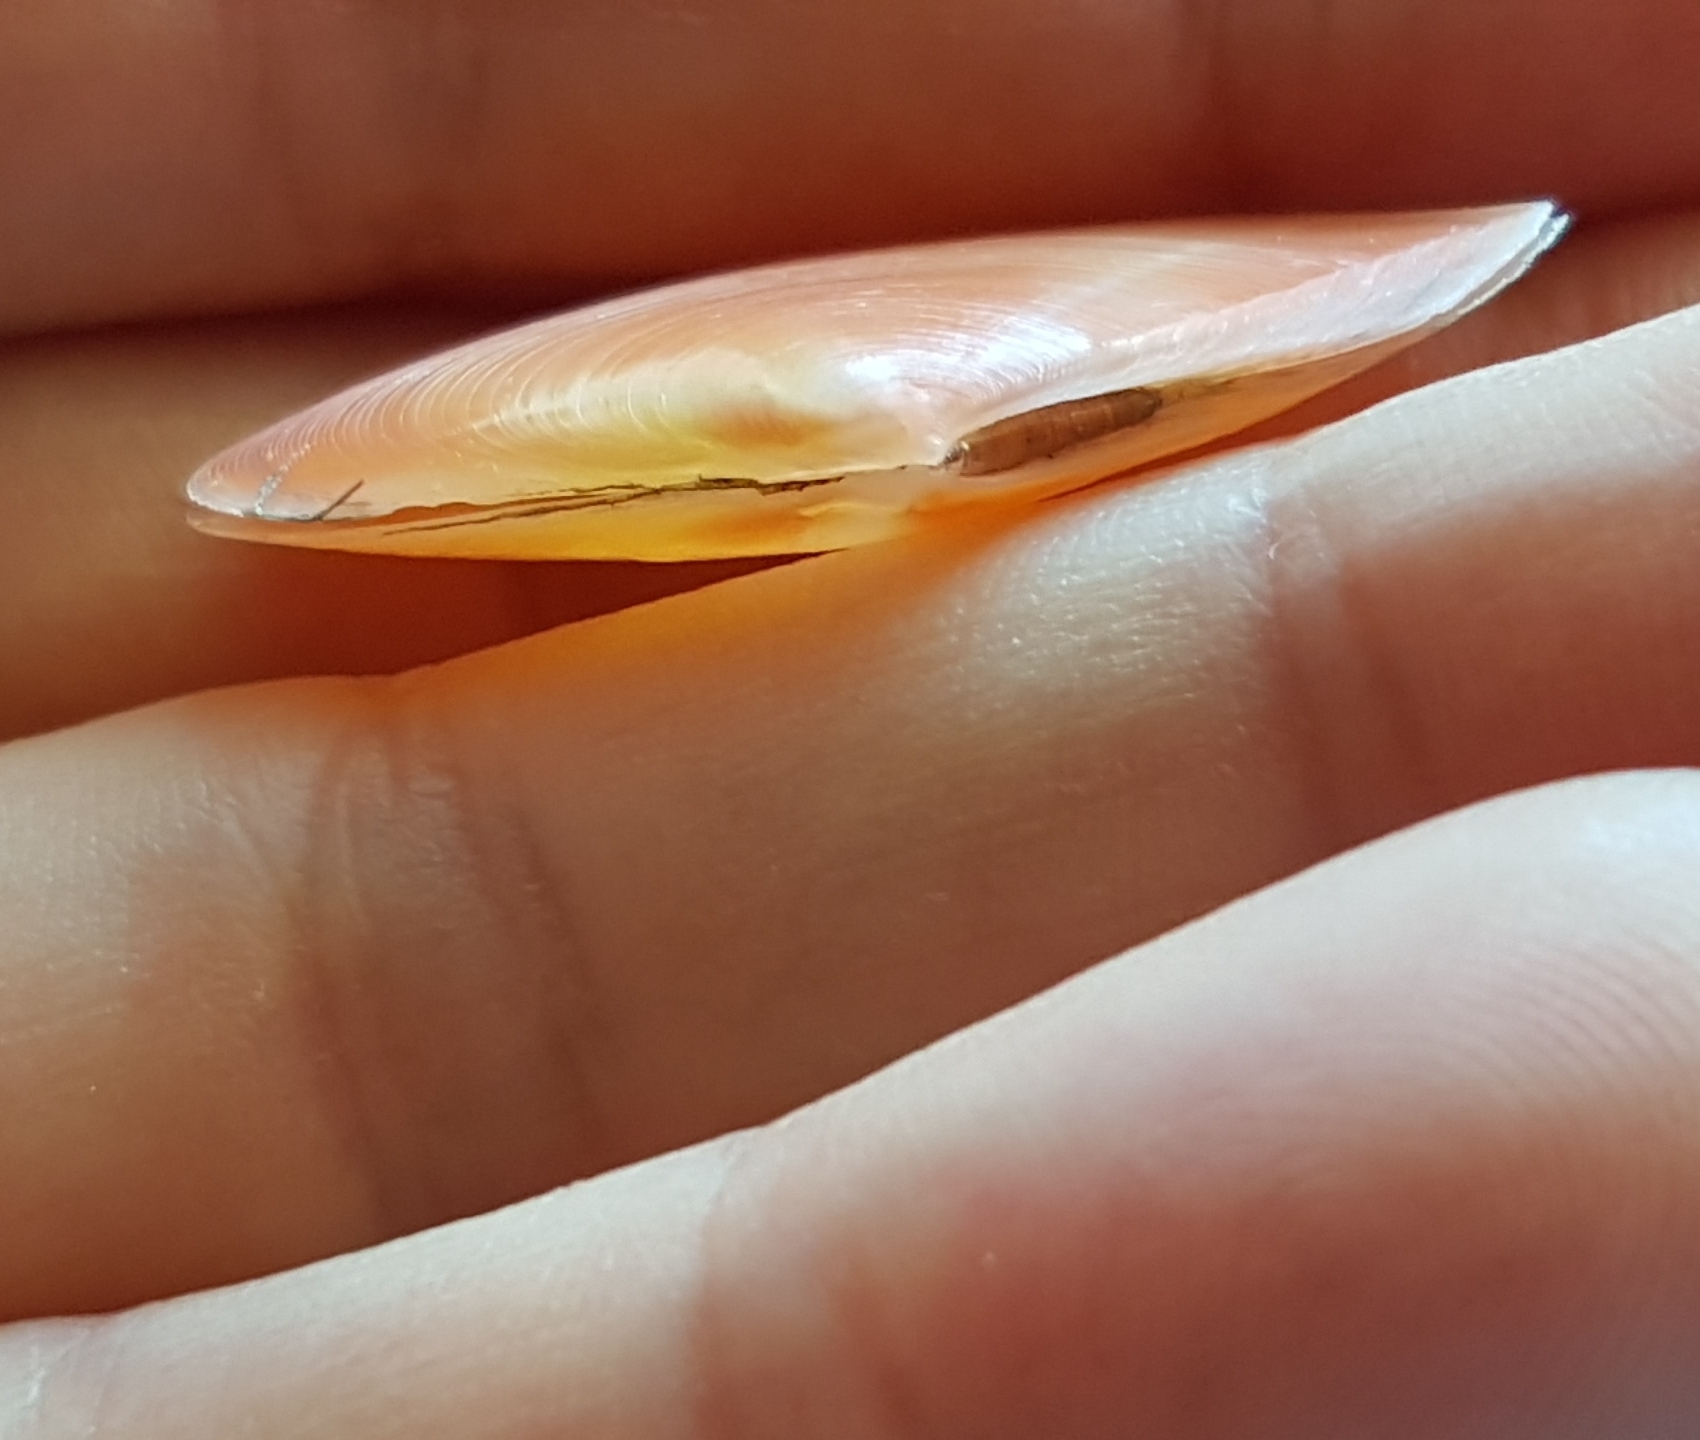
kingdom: Animalia
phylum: Mollusca
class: Bivalvia
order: Cardiida
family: Tellinidae
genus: Bosemprella
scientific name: Bosemprella incarnata
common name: Red tellin
